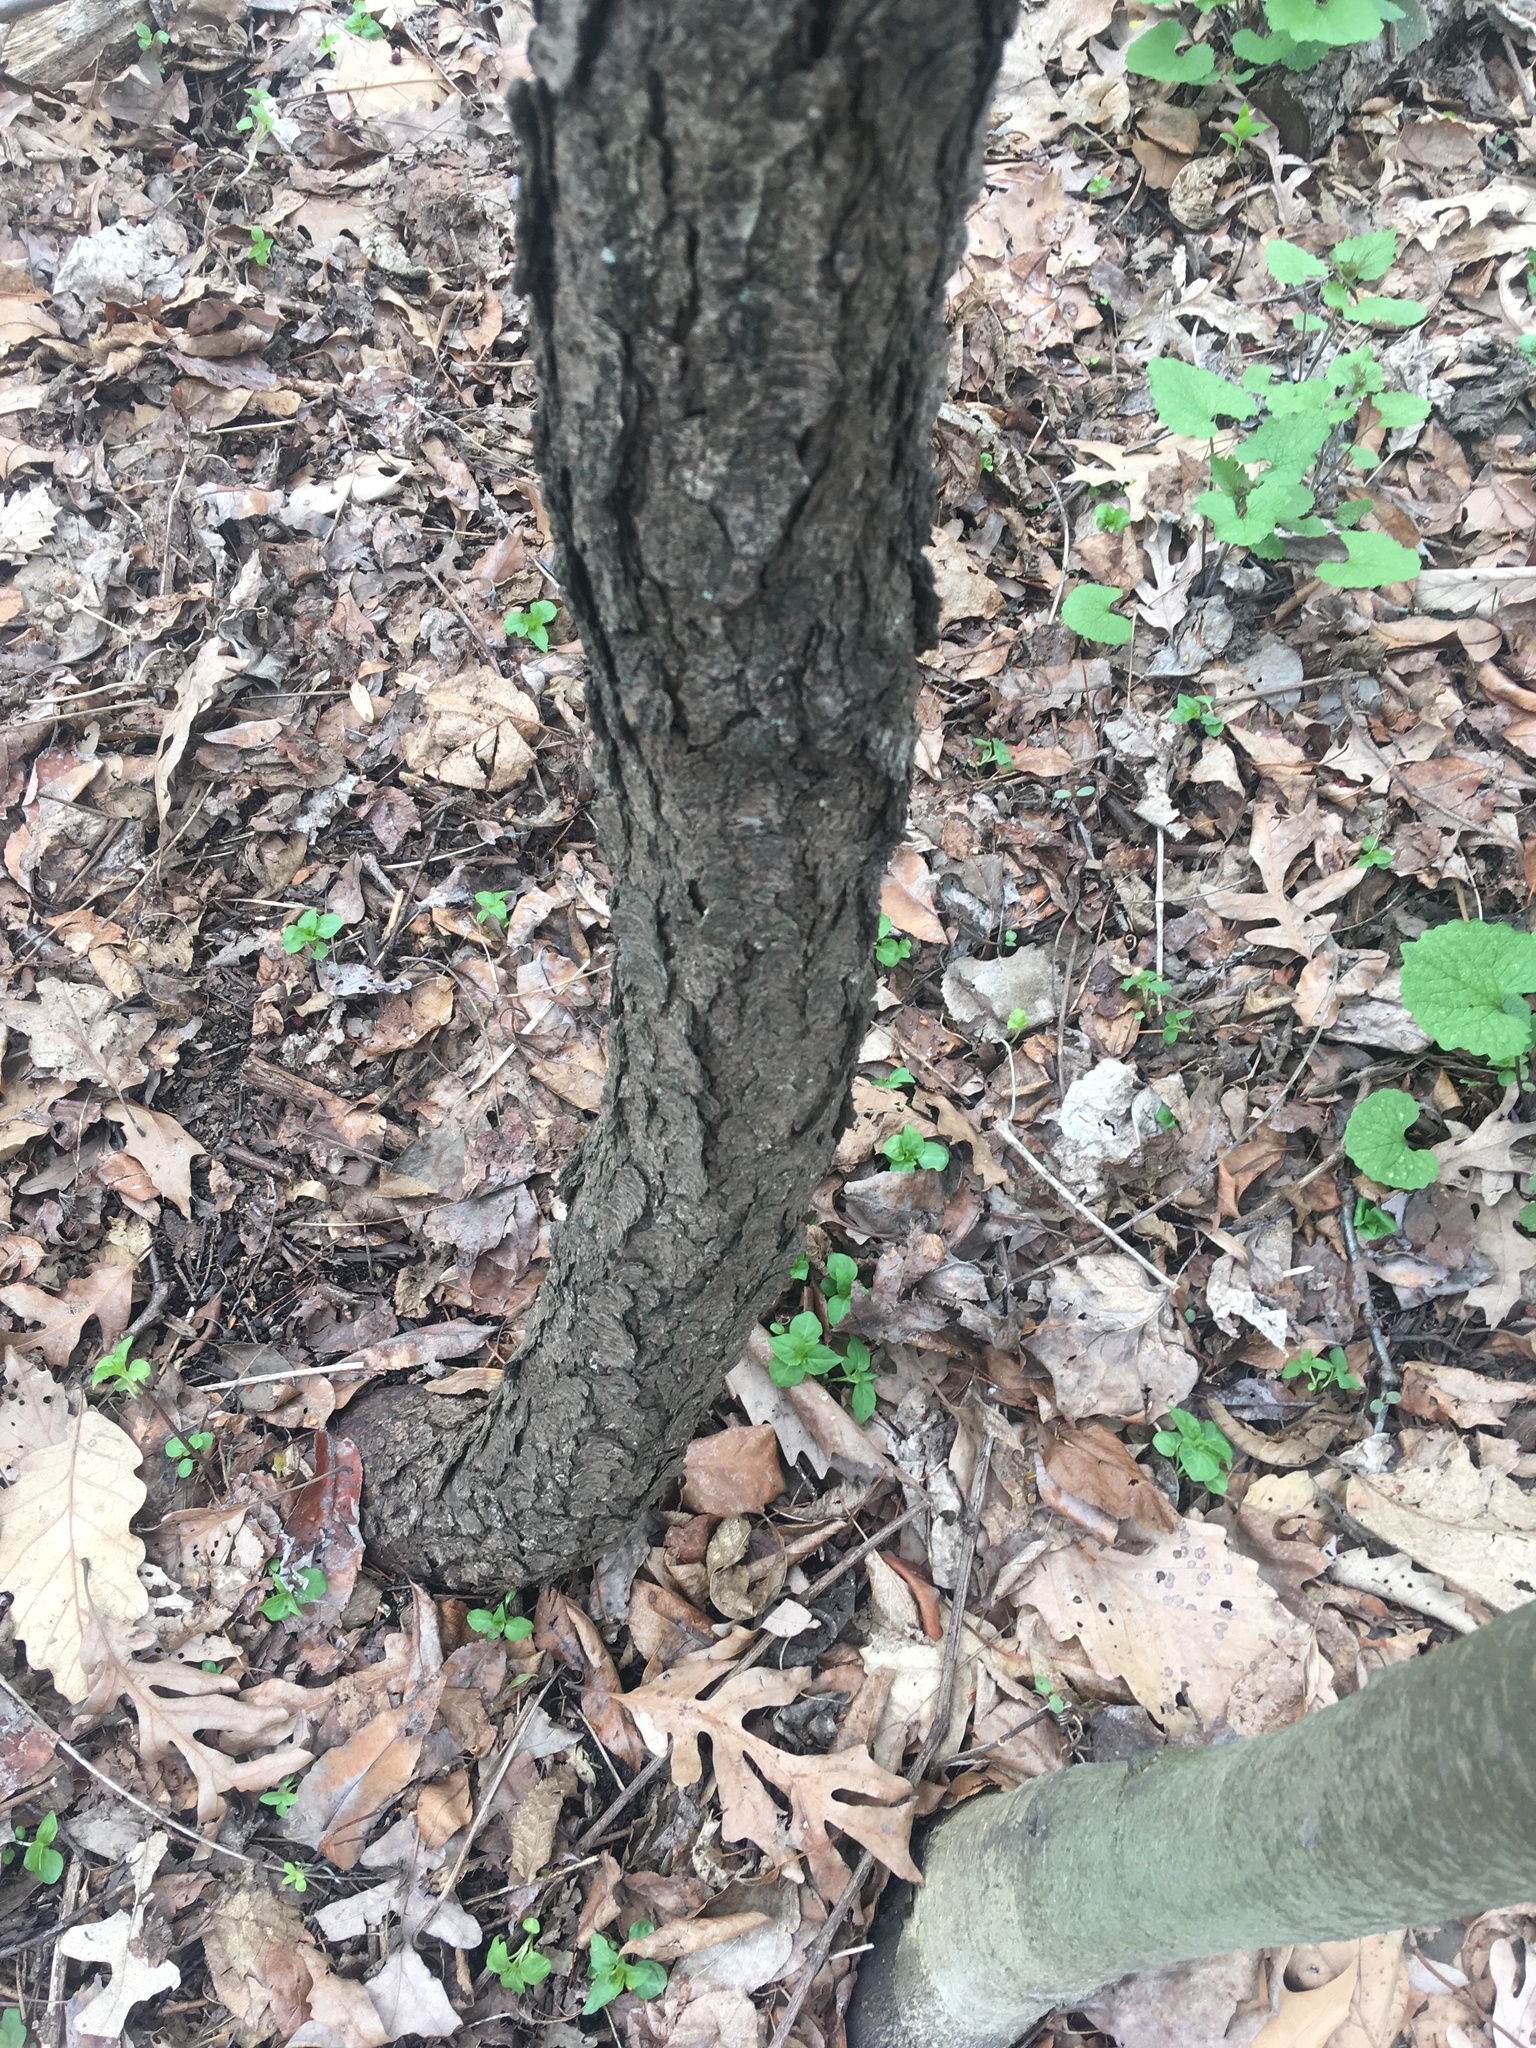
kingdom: Plantae
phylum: Tracheophyta
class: Magnoliopsida
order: Rosales
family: Rosaceae
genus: Prunus
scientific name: Prunus serotina
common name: Black cherry
